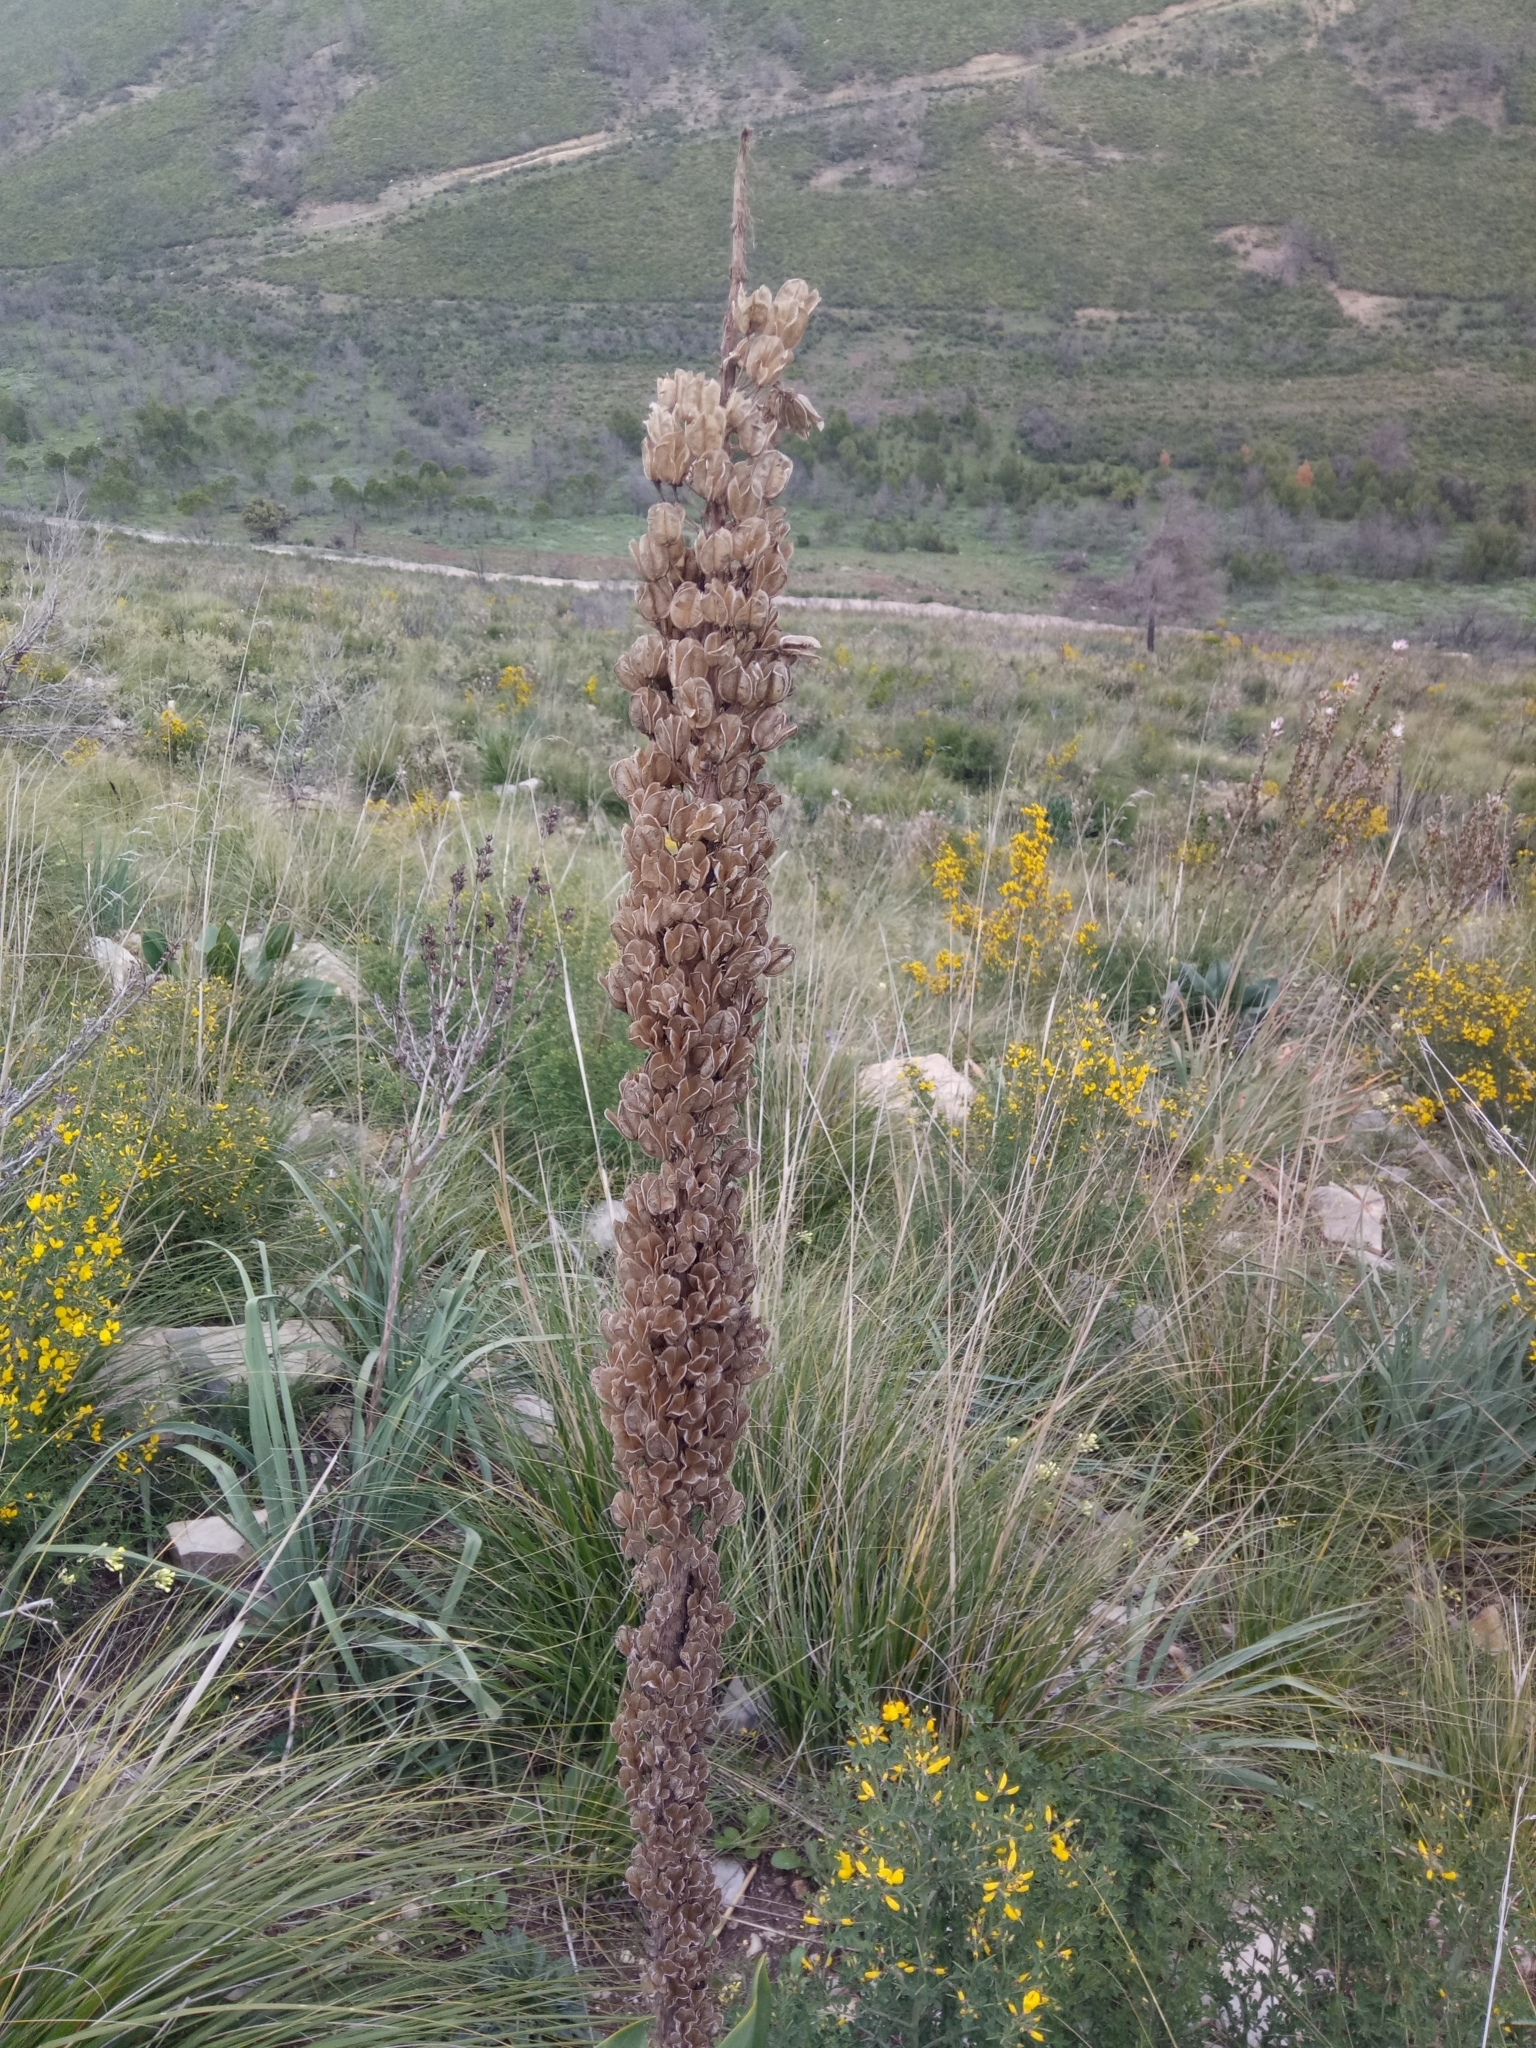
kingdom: Plantae
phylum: Tracheophyta
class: Liliopsida
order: Asparagales
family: Asparagaceae
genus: Drimia
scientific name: Drimia numidica
